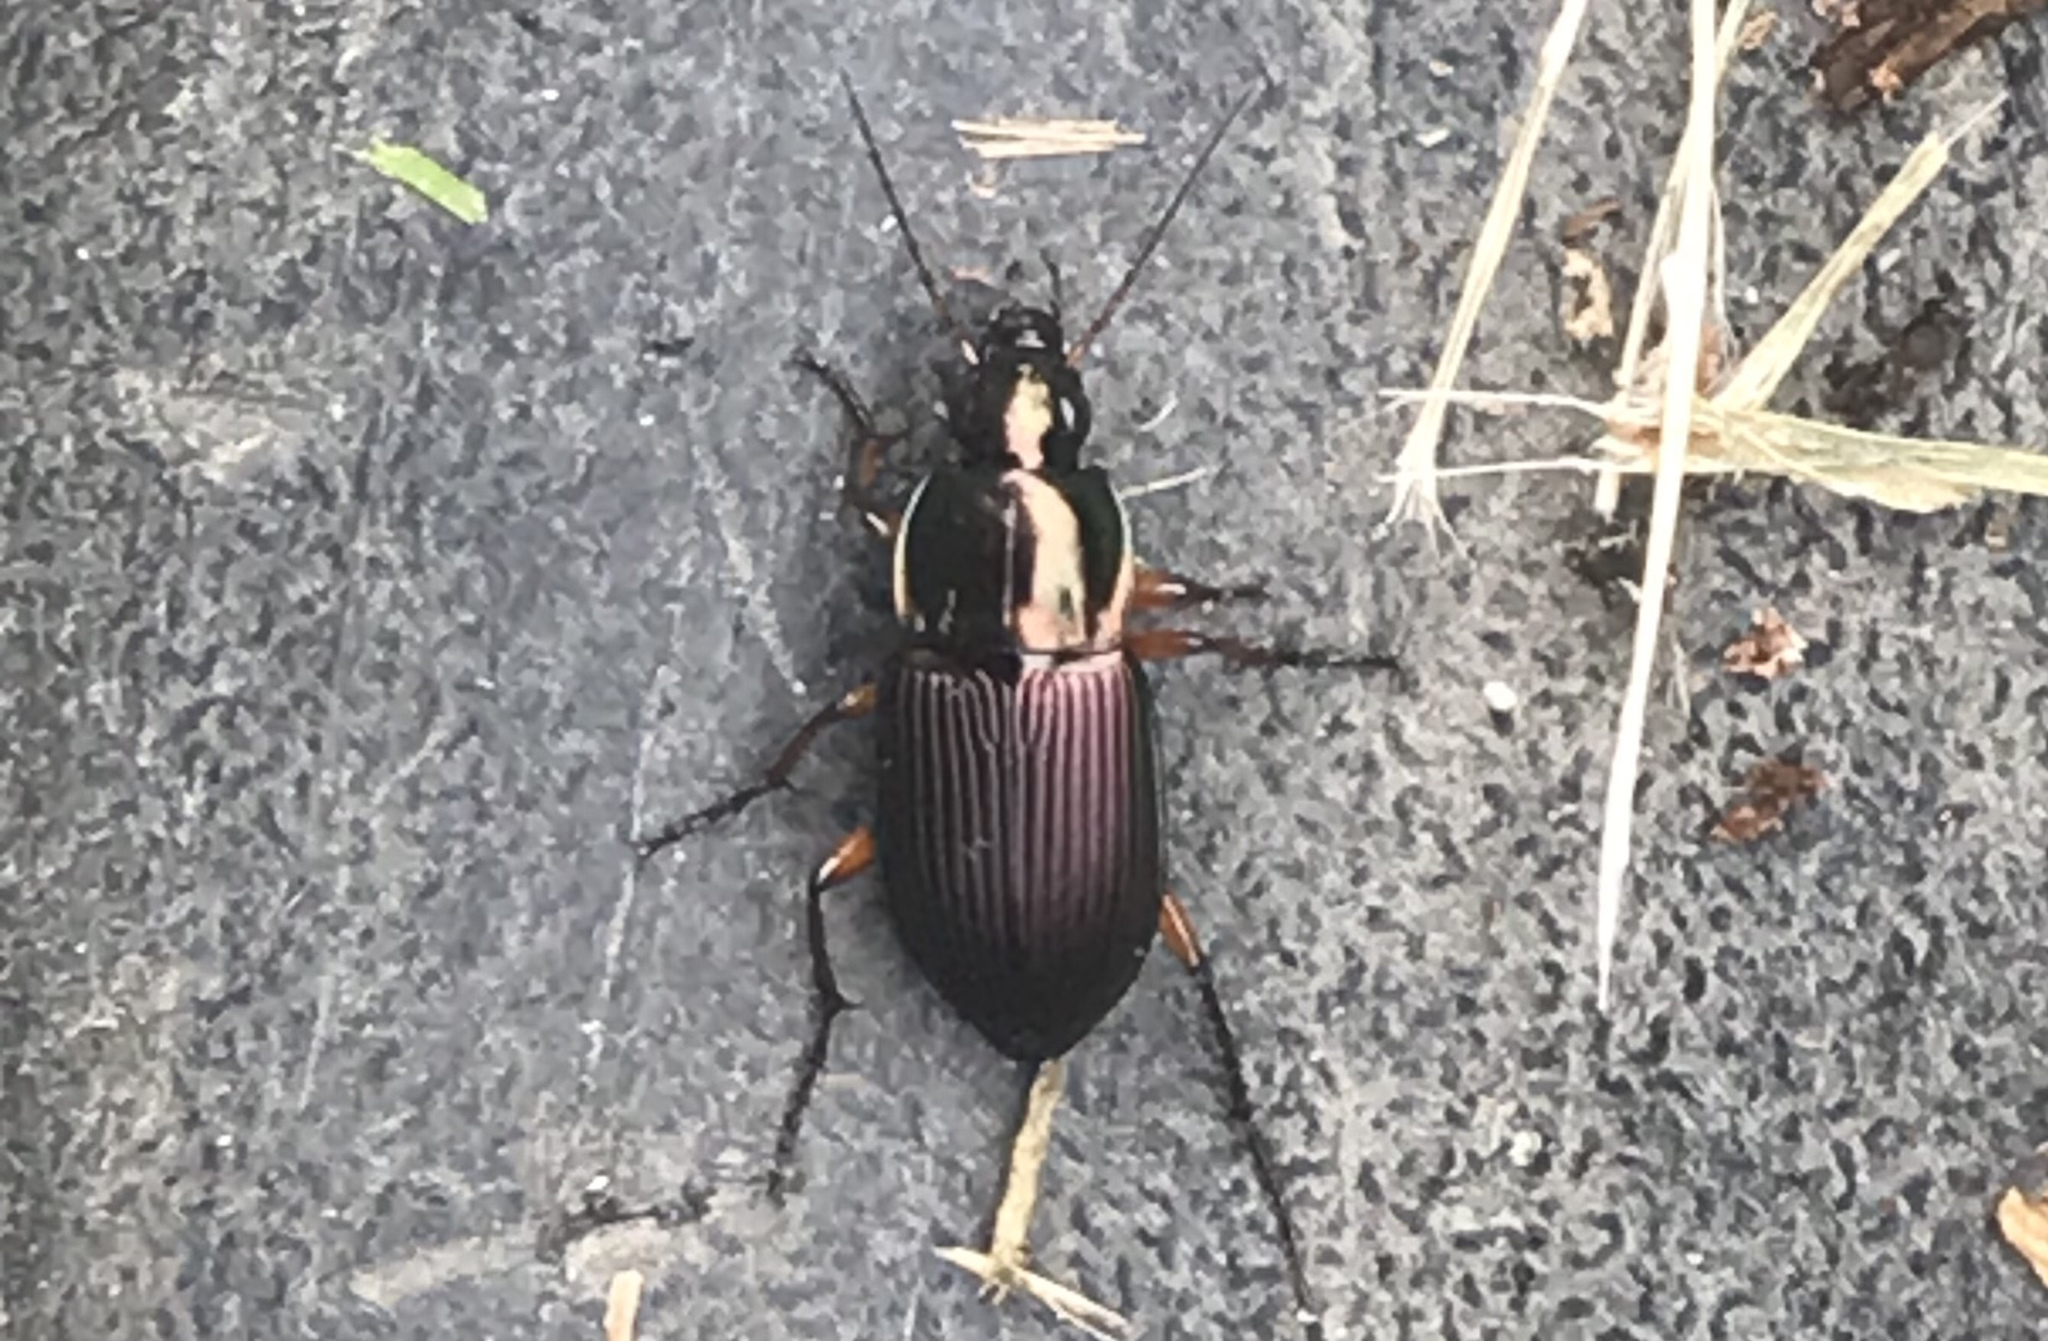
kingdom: Animalia
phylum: Arthropoda
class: Insecta
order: Coleoptera
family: Carabidae
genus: Poecilus
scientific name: Poecilus lucublandus
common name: Woodland ground beetle
